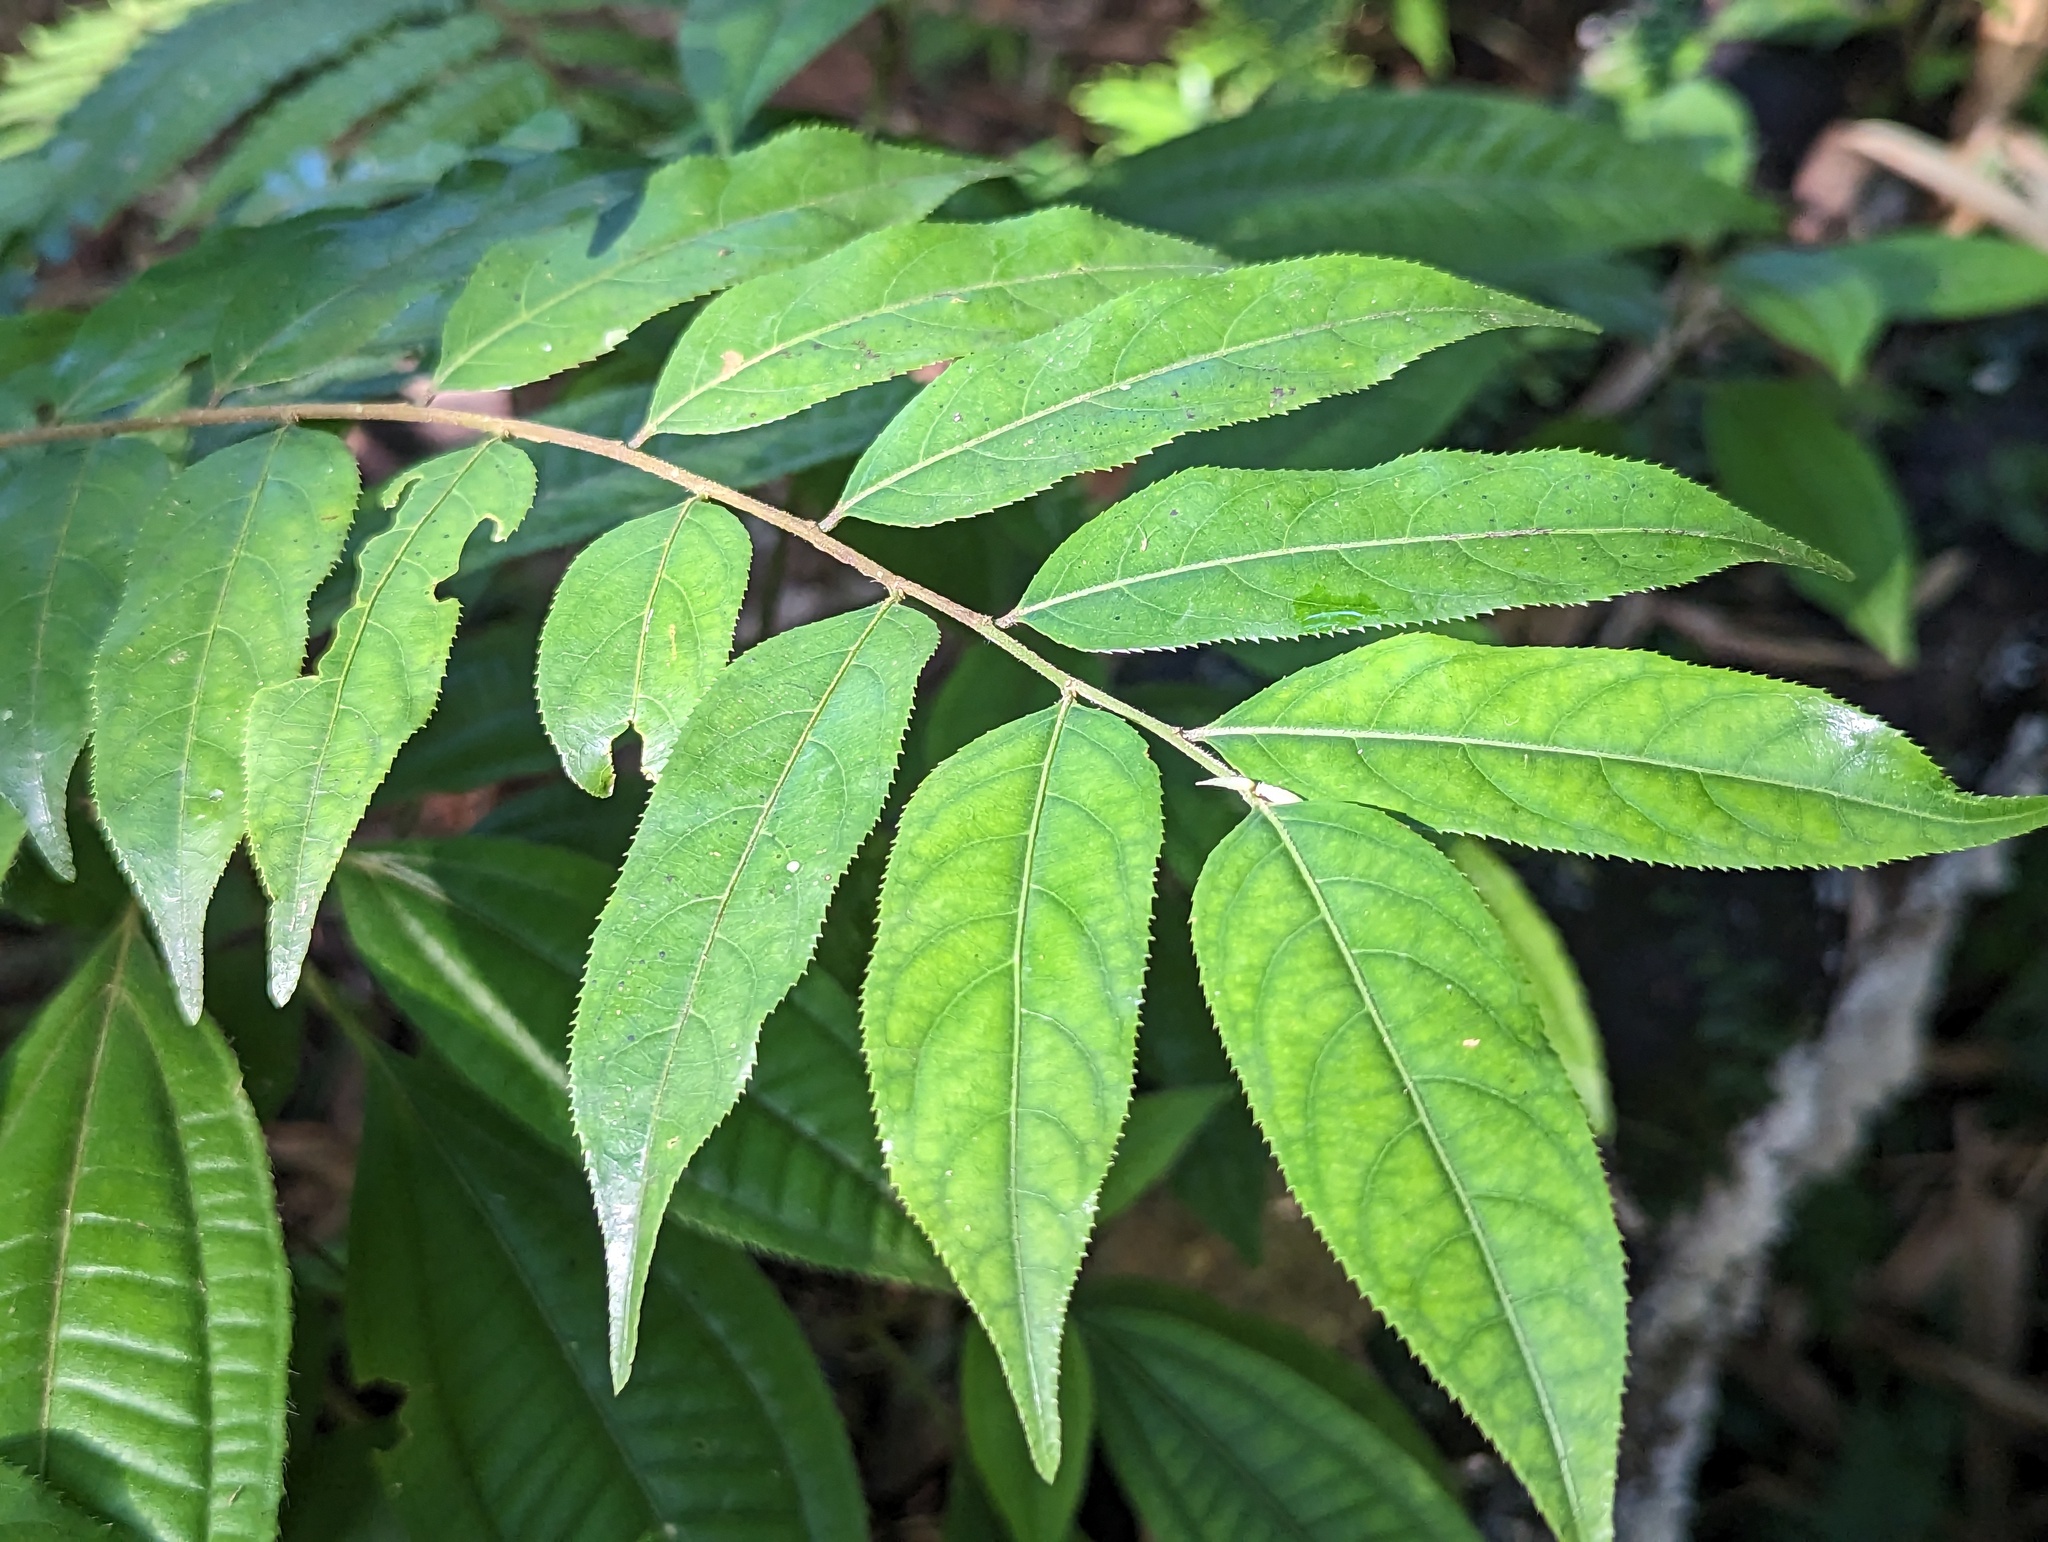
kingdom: Plantae
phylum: Tracheophyta
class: Magnoliopsida
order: Malpighiales
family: Salicaceae
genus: Casearia
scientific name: Casearia arborea
